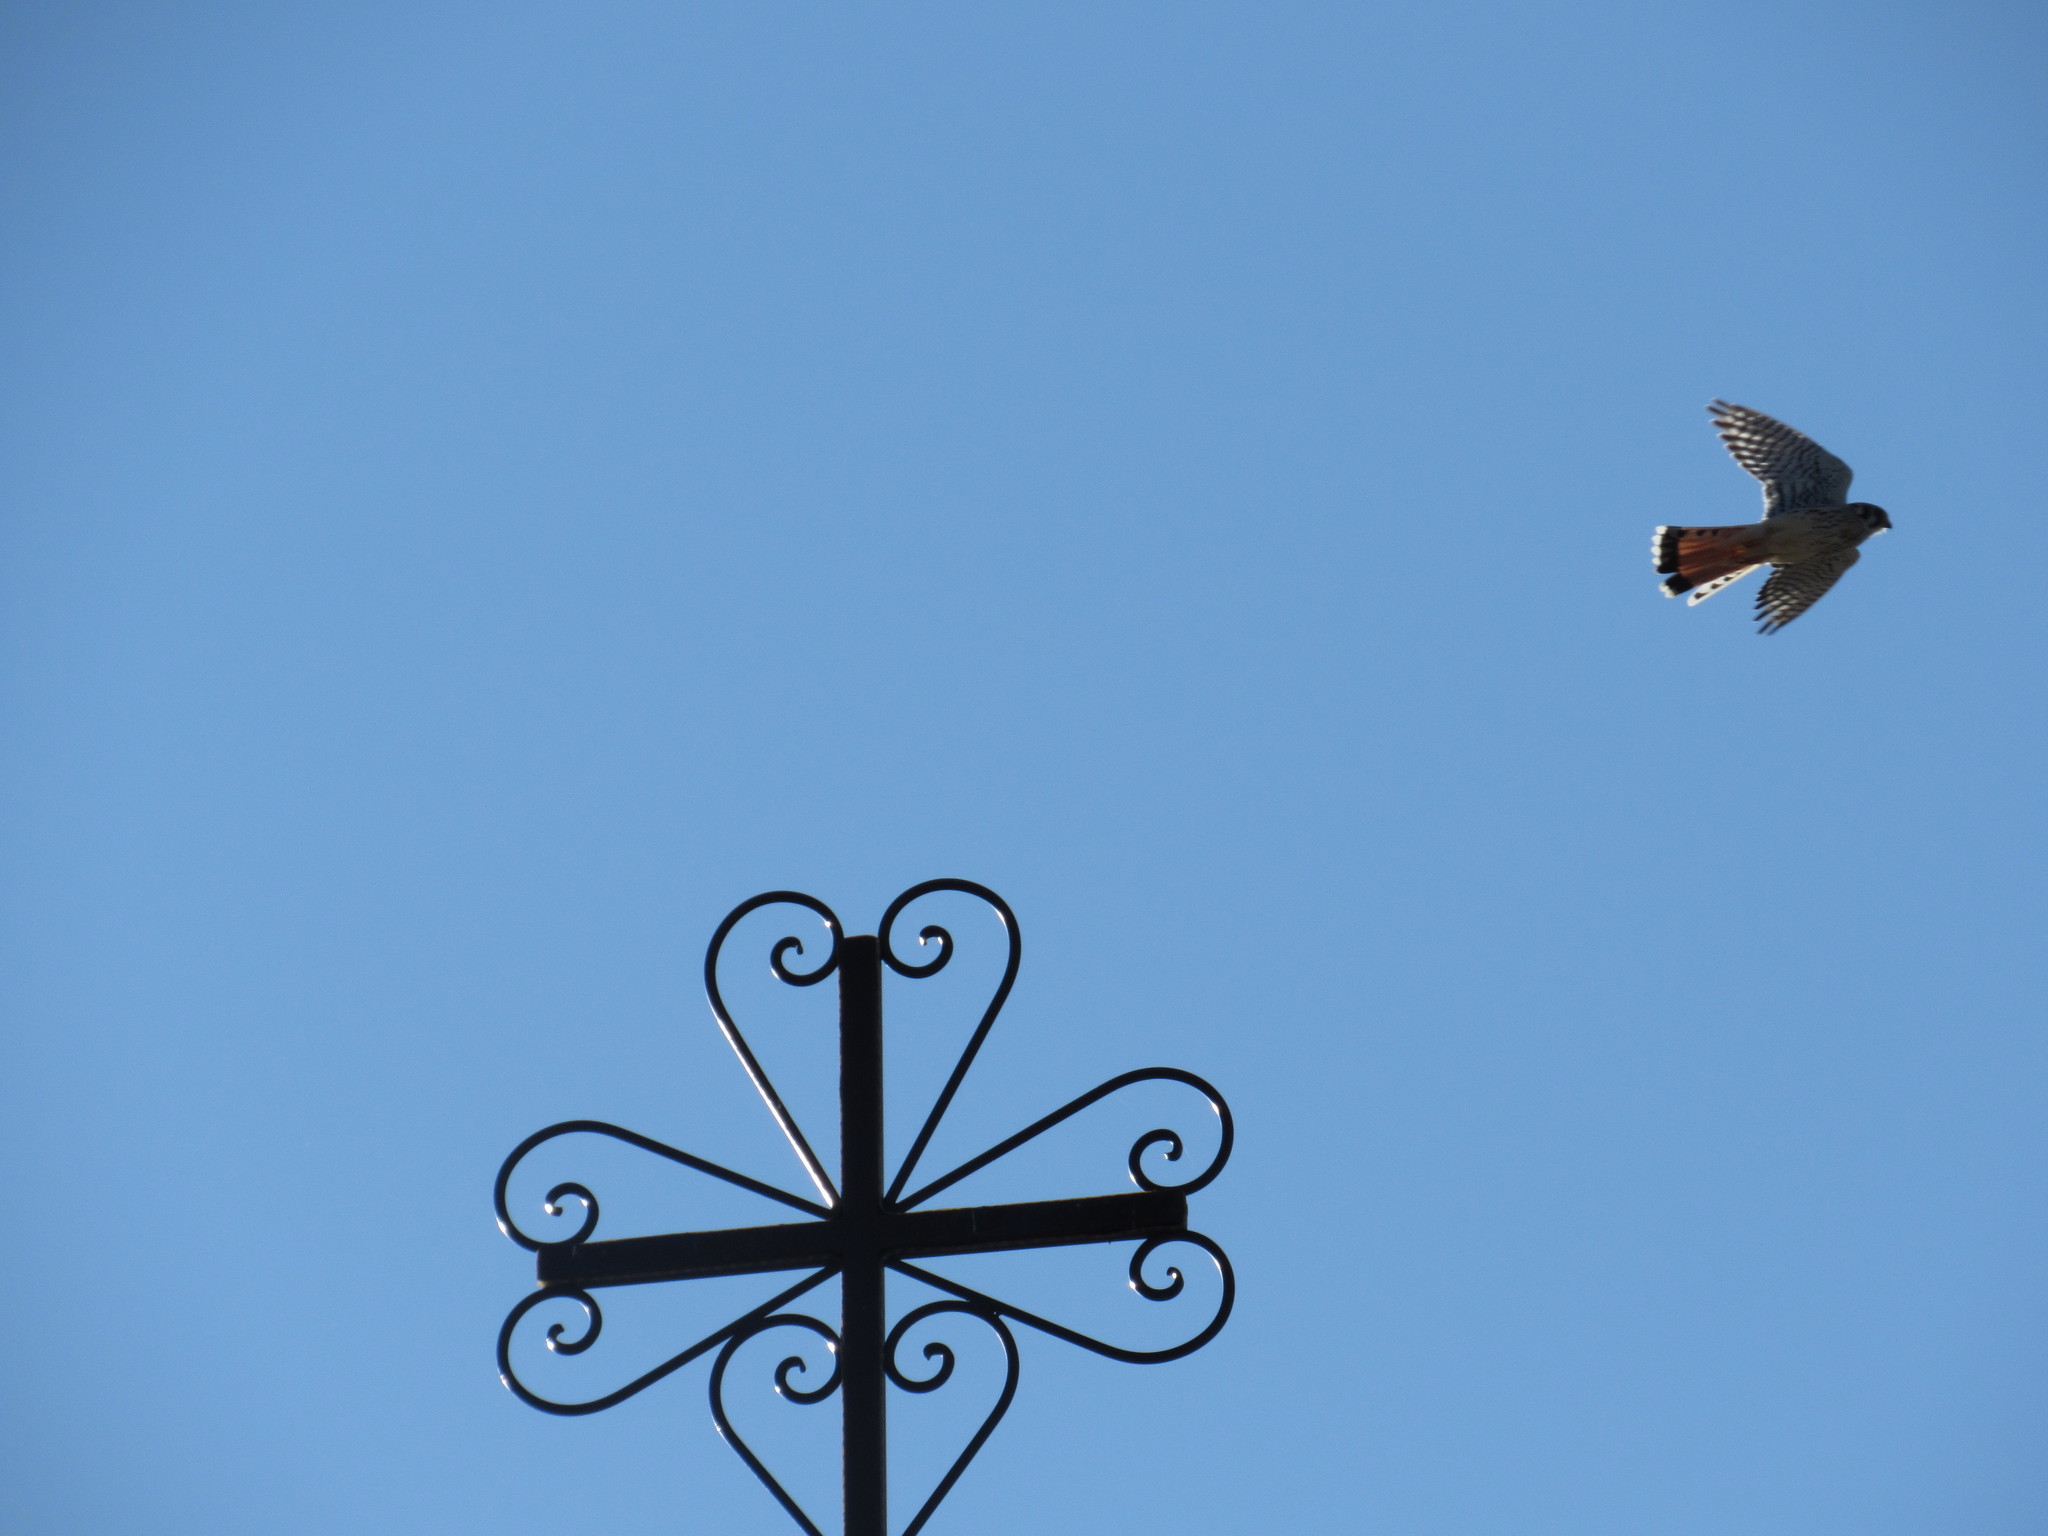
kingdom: Animalia
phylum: Chordata
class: Aves
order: Falconiformes
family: Falconidae
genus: Falco
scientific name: Falco sparverius
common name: American kestrel
